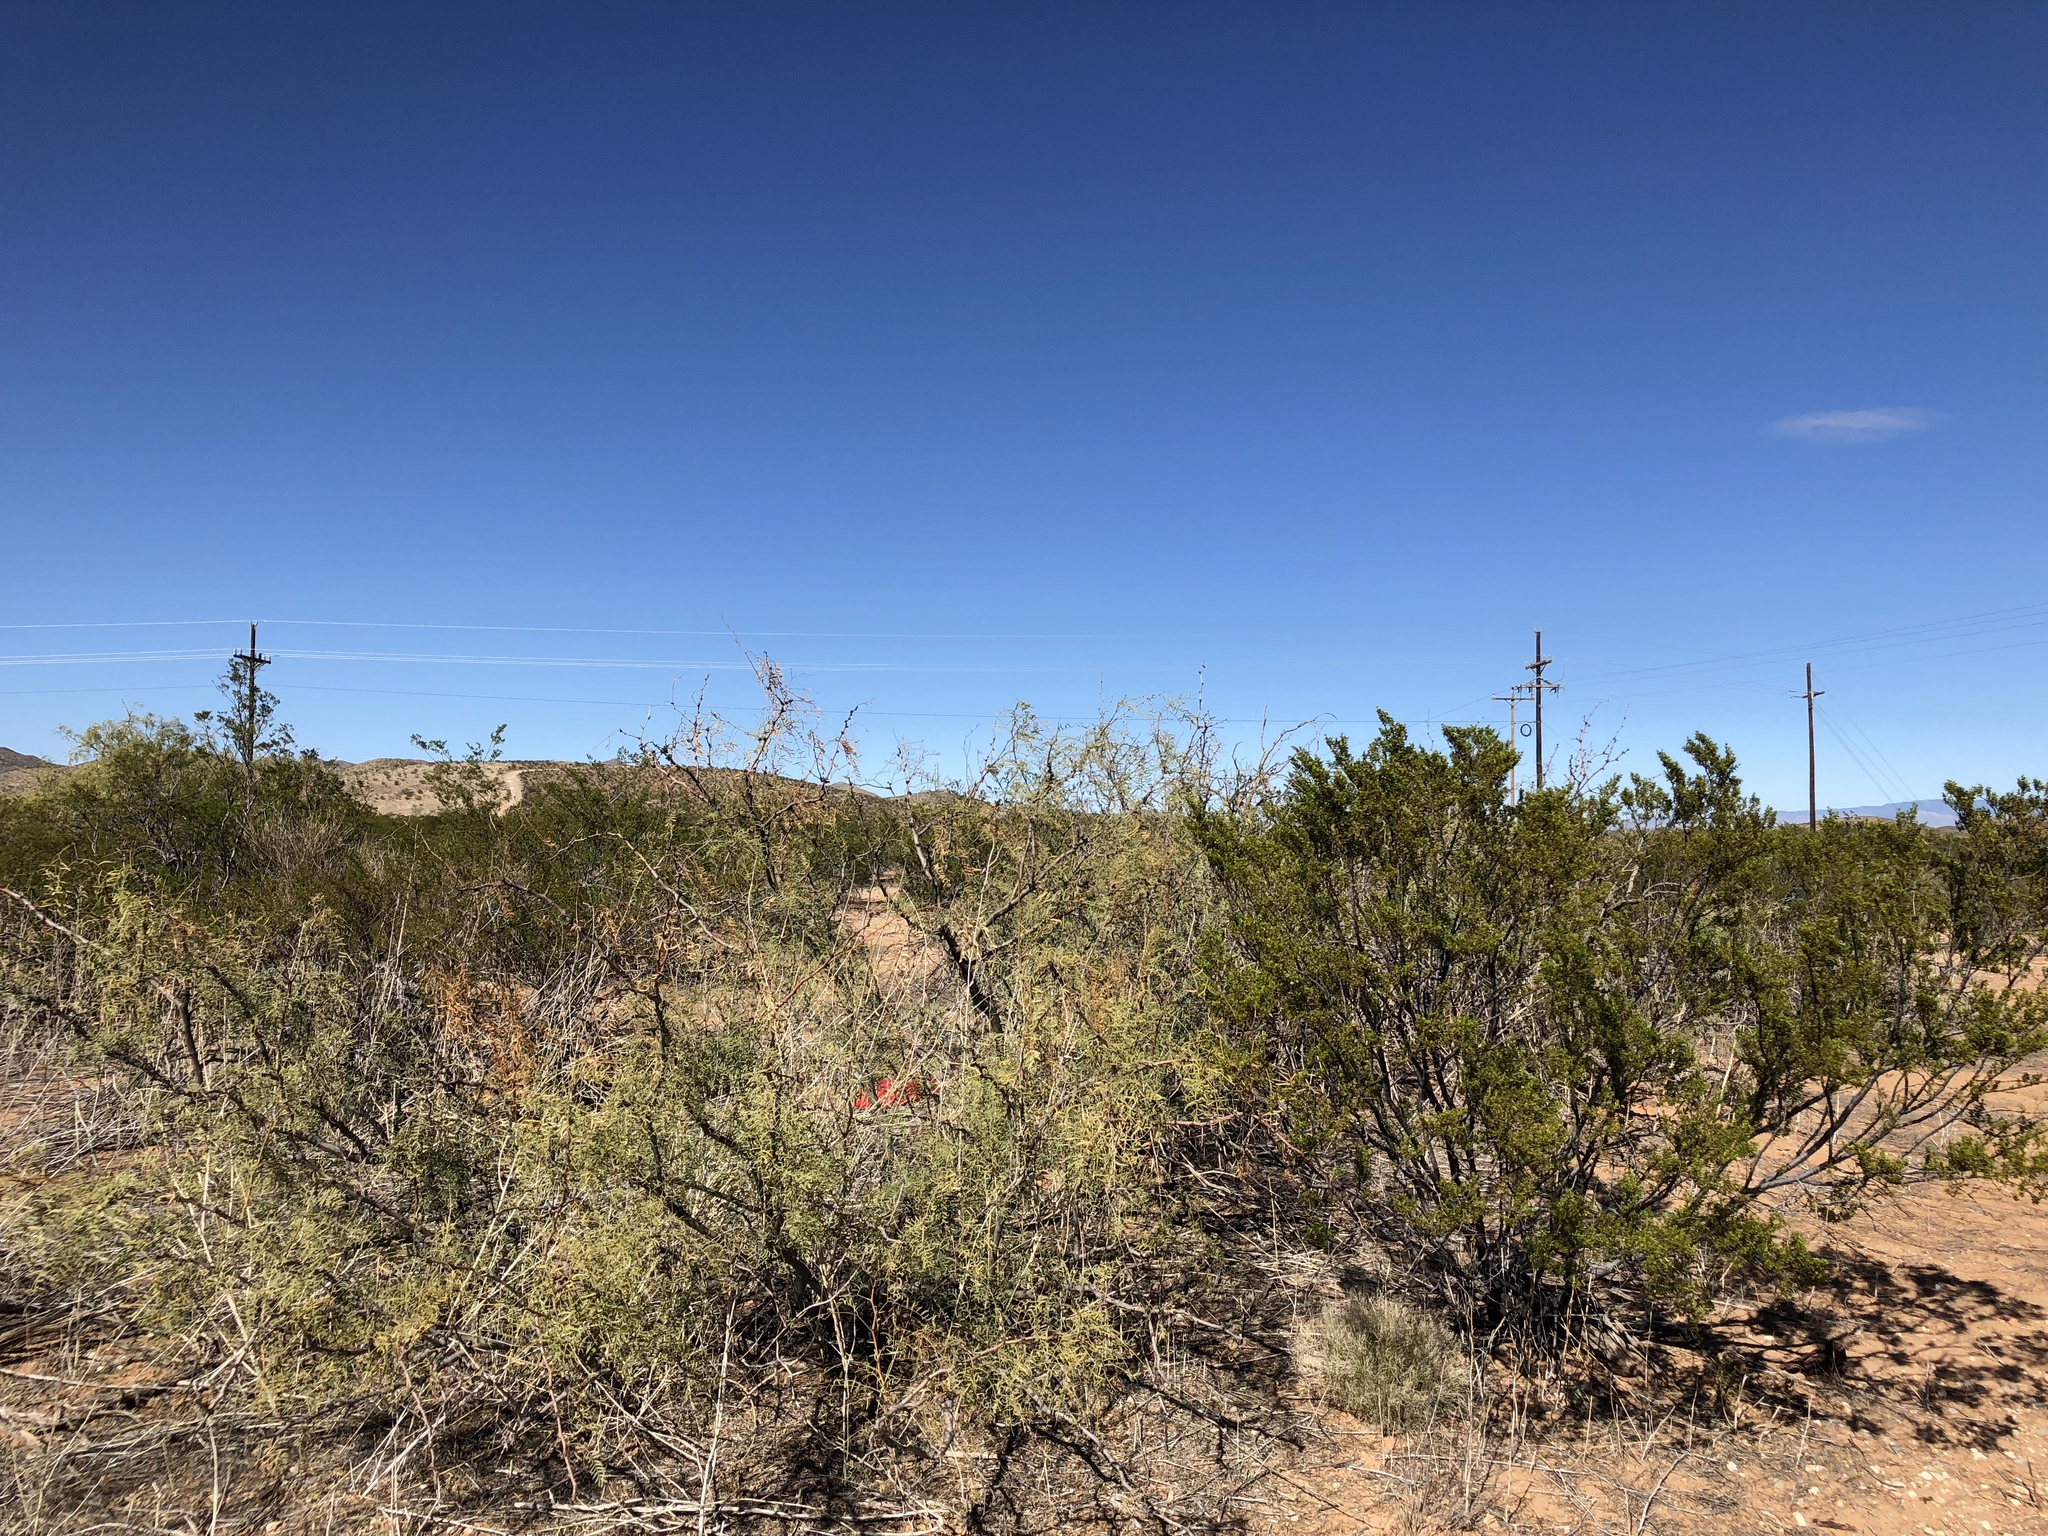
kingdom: Plantae
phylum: Tracheophyta
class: Magnoliopsida
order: Fabales
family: Fabaceae
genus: Prosopis
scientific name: Prosopis glandulosa
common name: Honey mesquite
